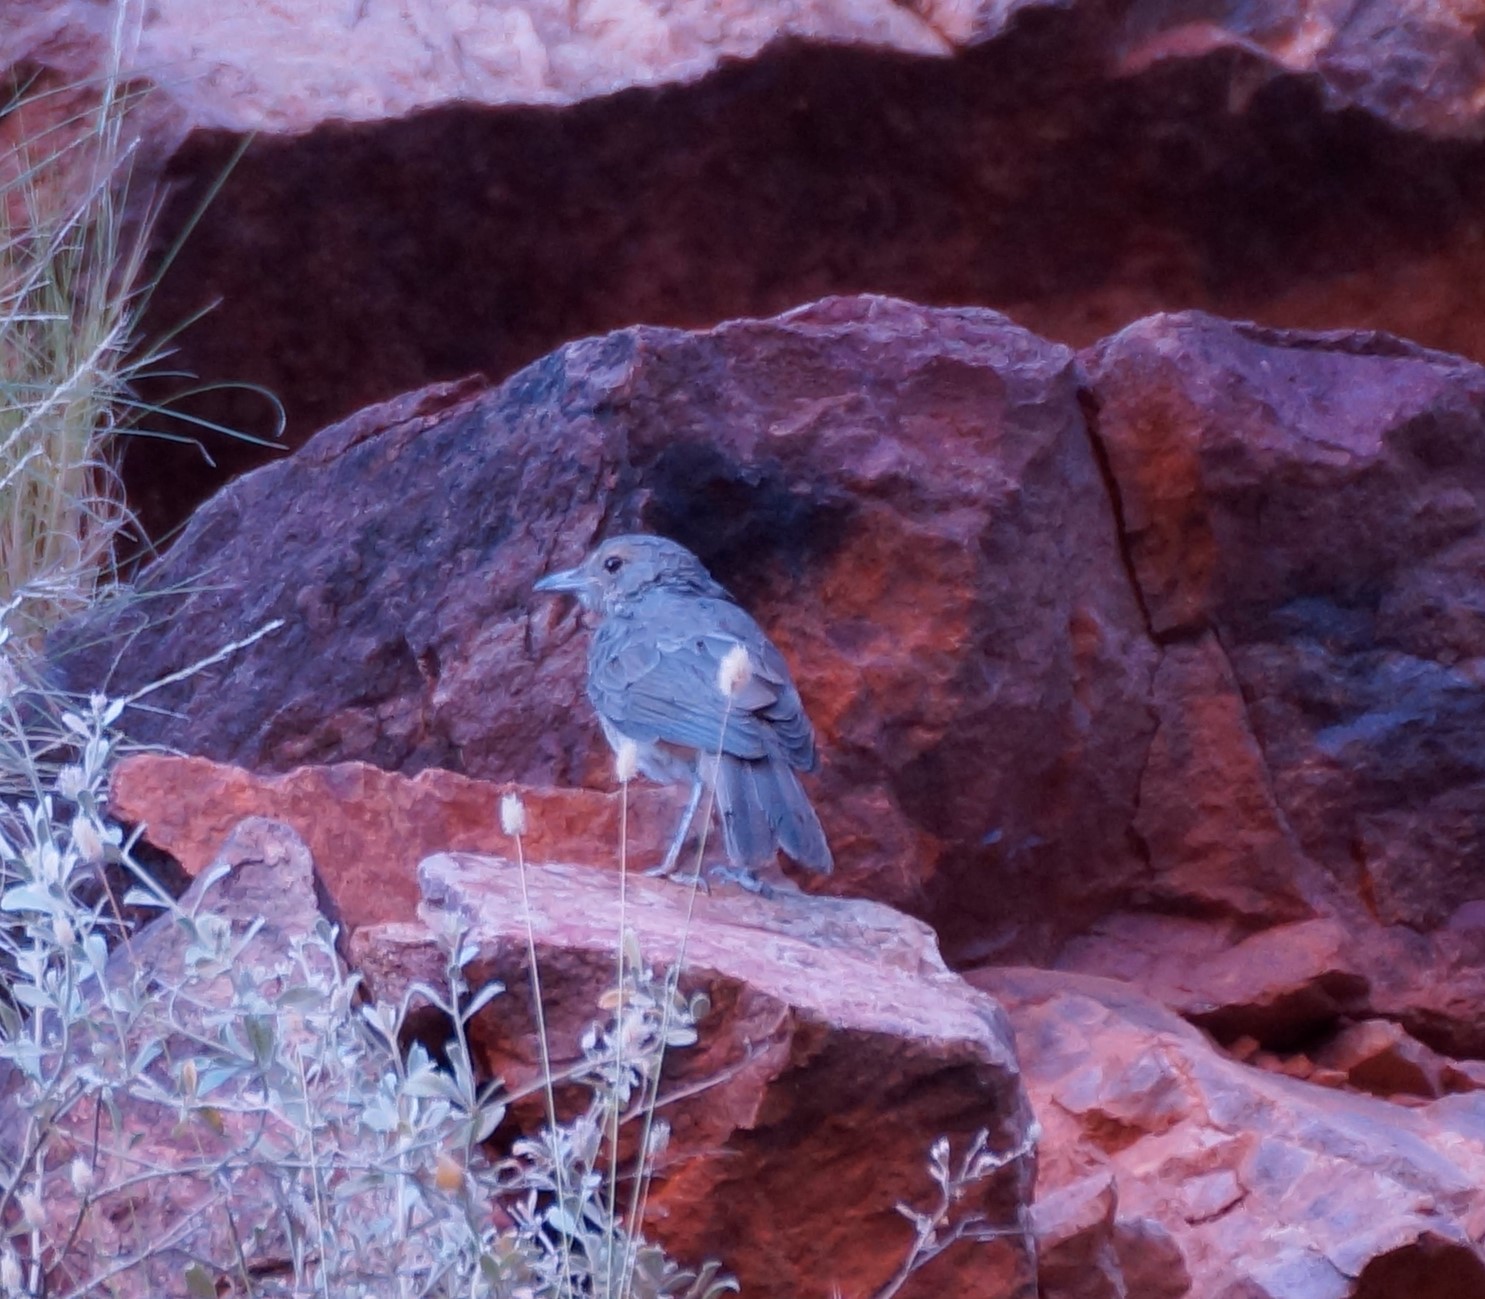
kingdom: Animalia
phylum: Chordata
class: Aves
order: Passeriformes
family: Pachycephalidae
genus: Colluricincla
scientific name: Colluricincla harmonica
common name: Grey shrikethrush
